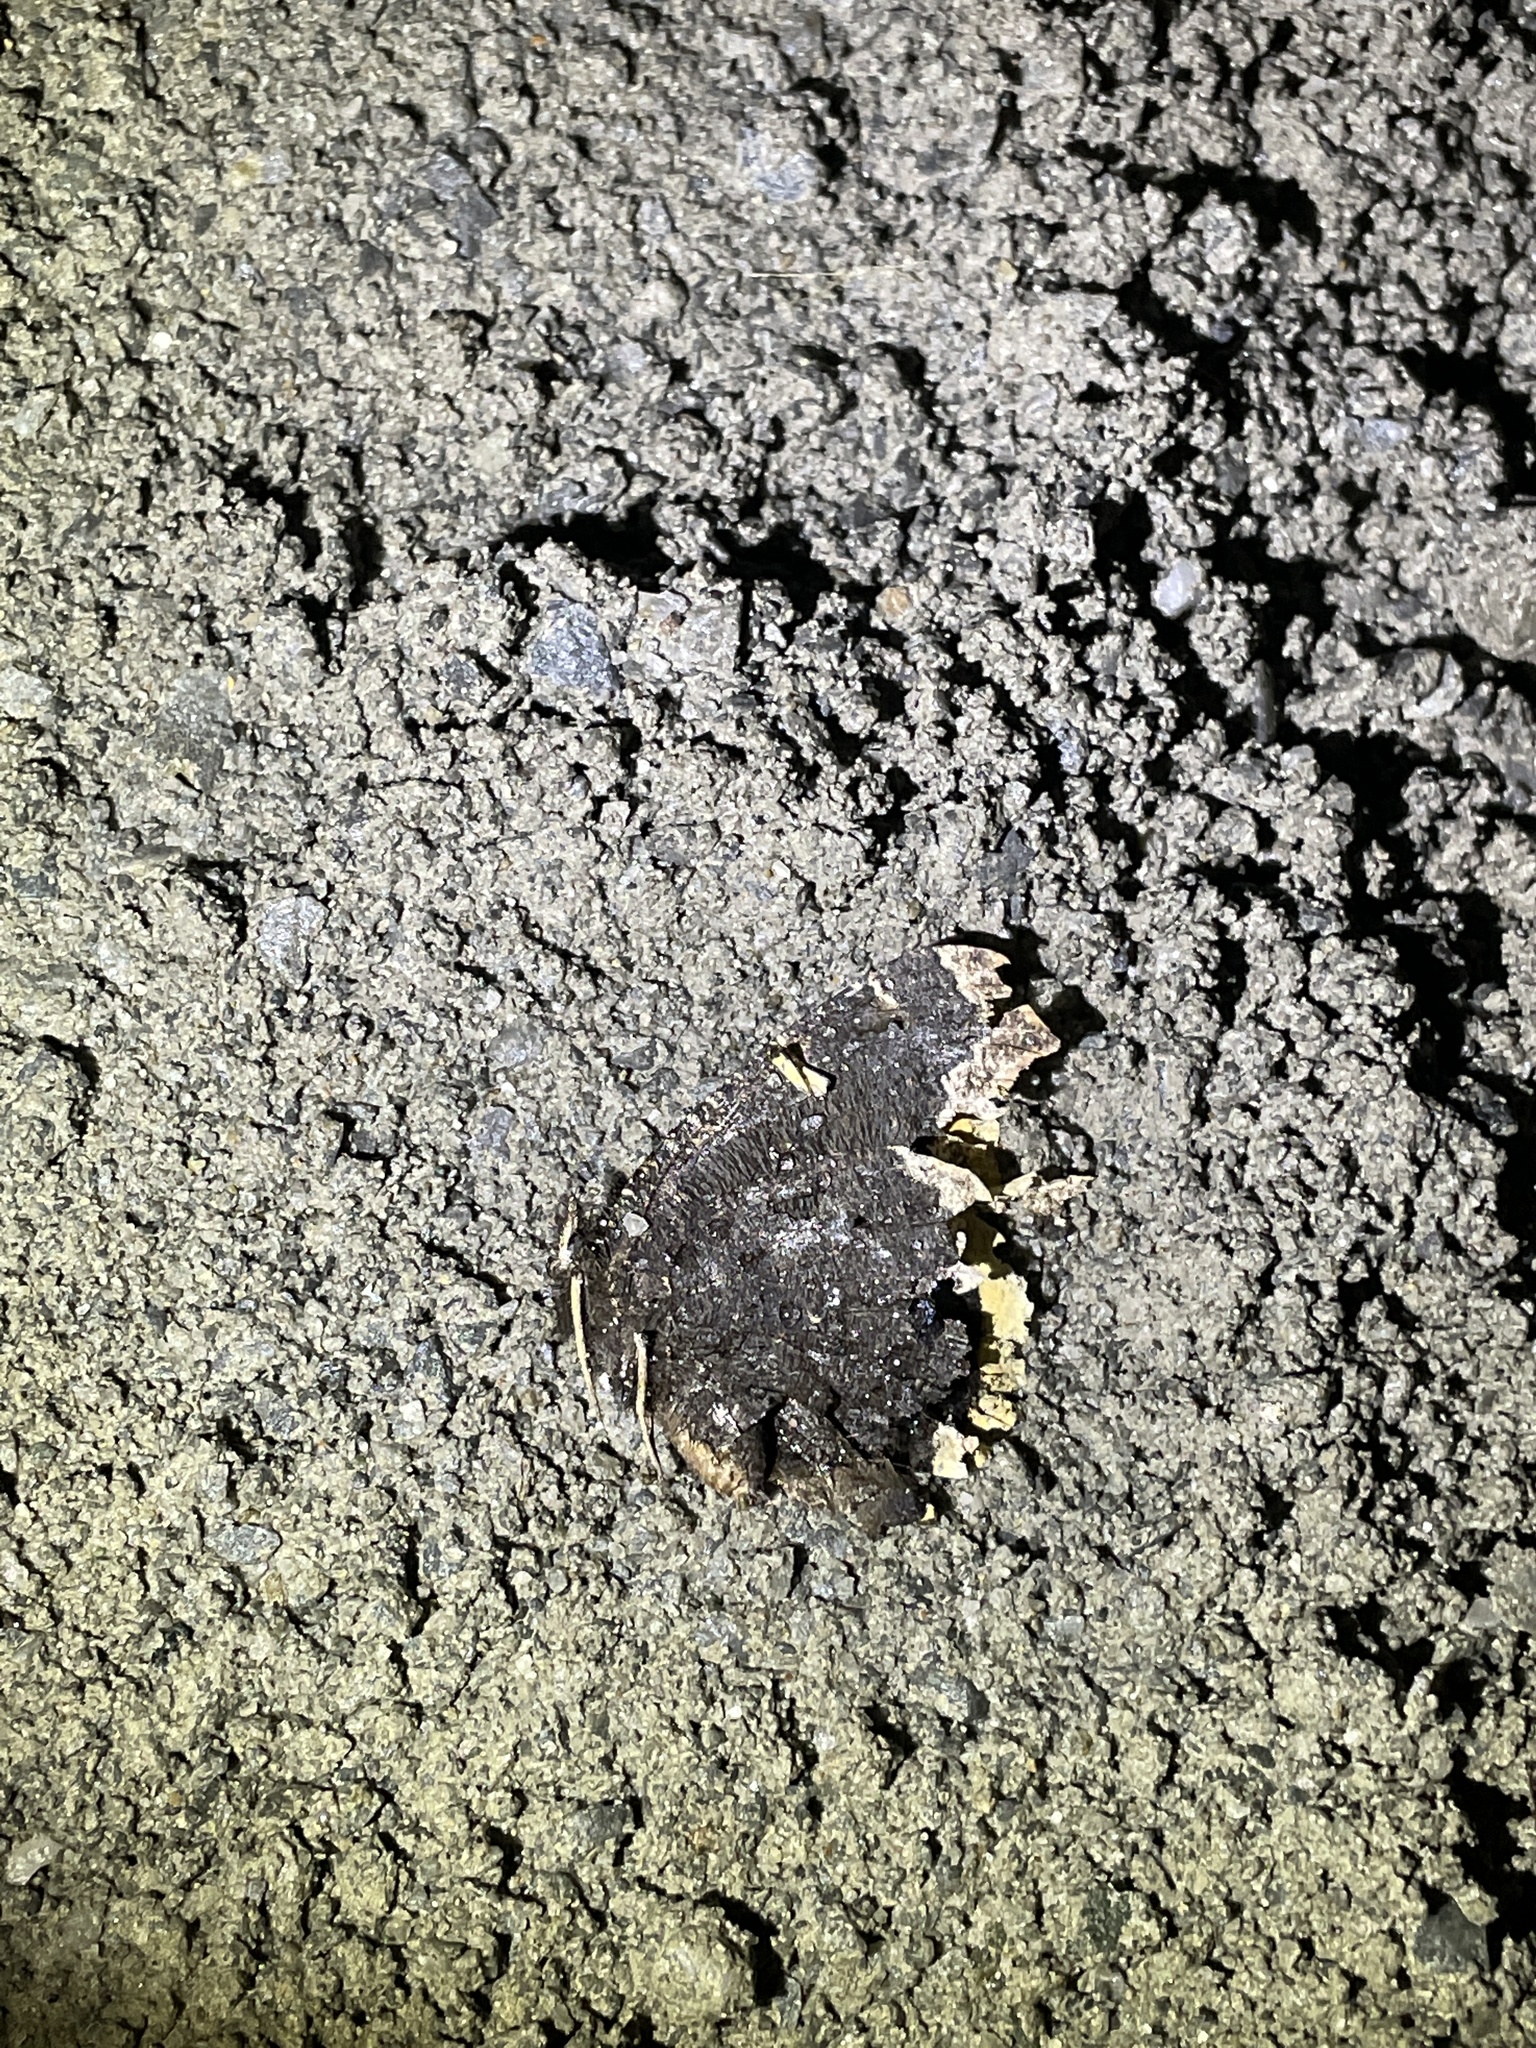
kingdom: Animalia
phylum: Arthropoda
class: Insecta
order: Lepidoptera
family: Nymphalidae
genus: Nymphalis
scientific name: Nymphalis antiopa
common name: Camberwell beauty
